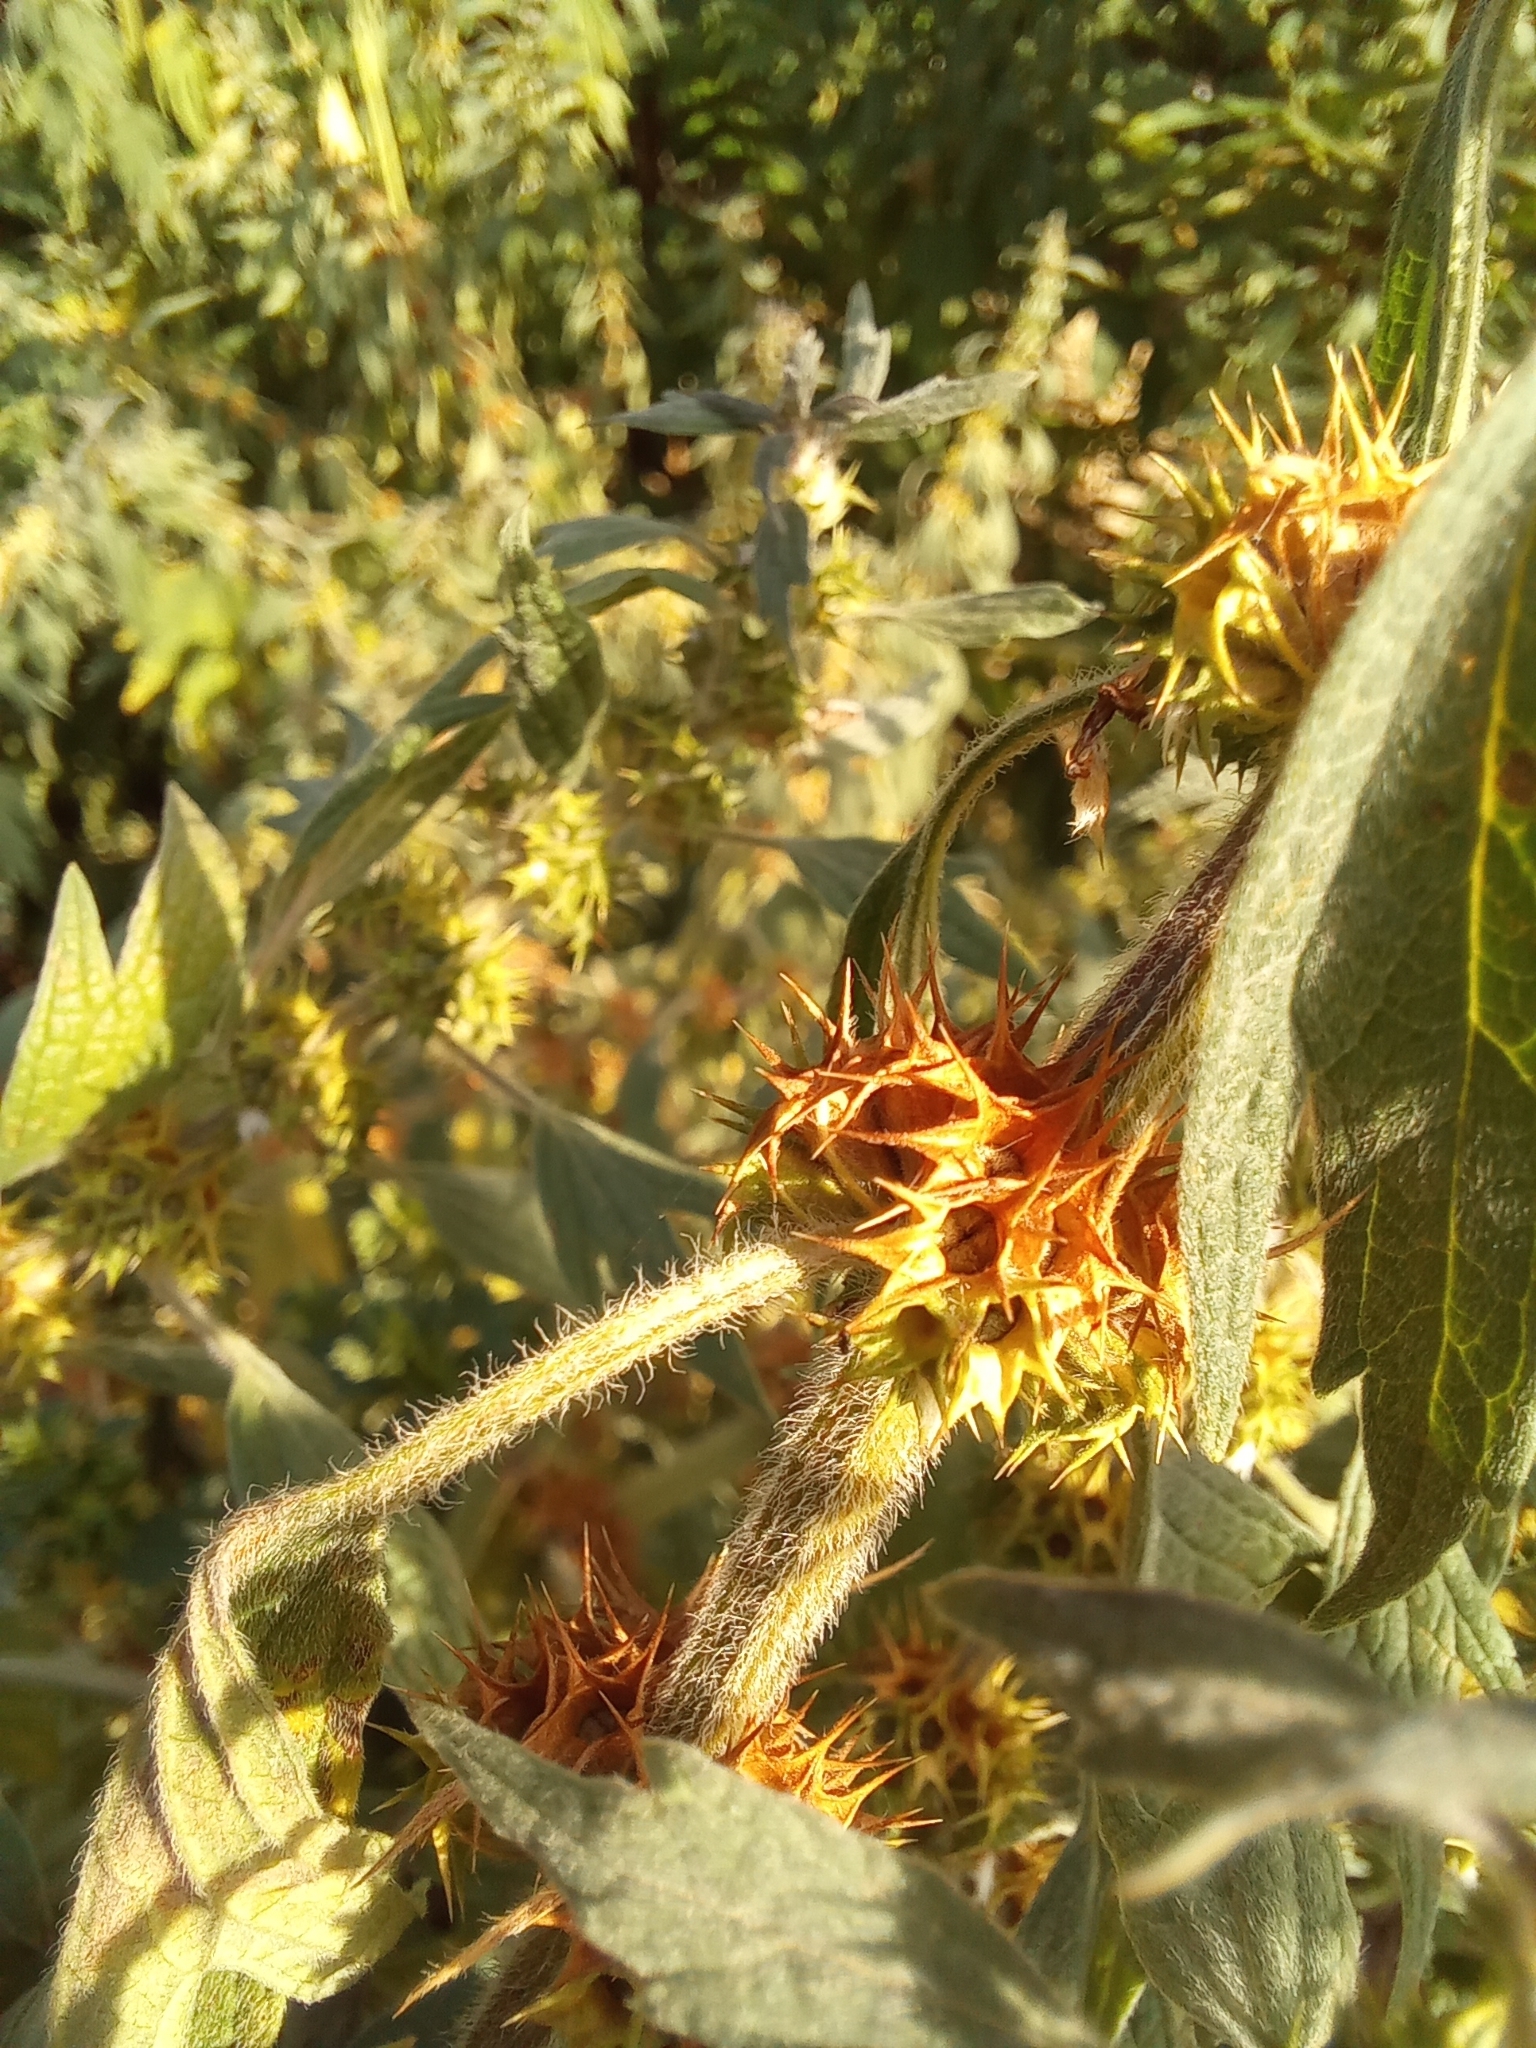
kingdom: Plantae
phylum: Tracheophyta
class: Magnoliopsida
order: Lamiales
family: Lamiaceae
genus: Leonurus
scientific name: Leonurus quinquelobatus
